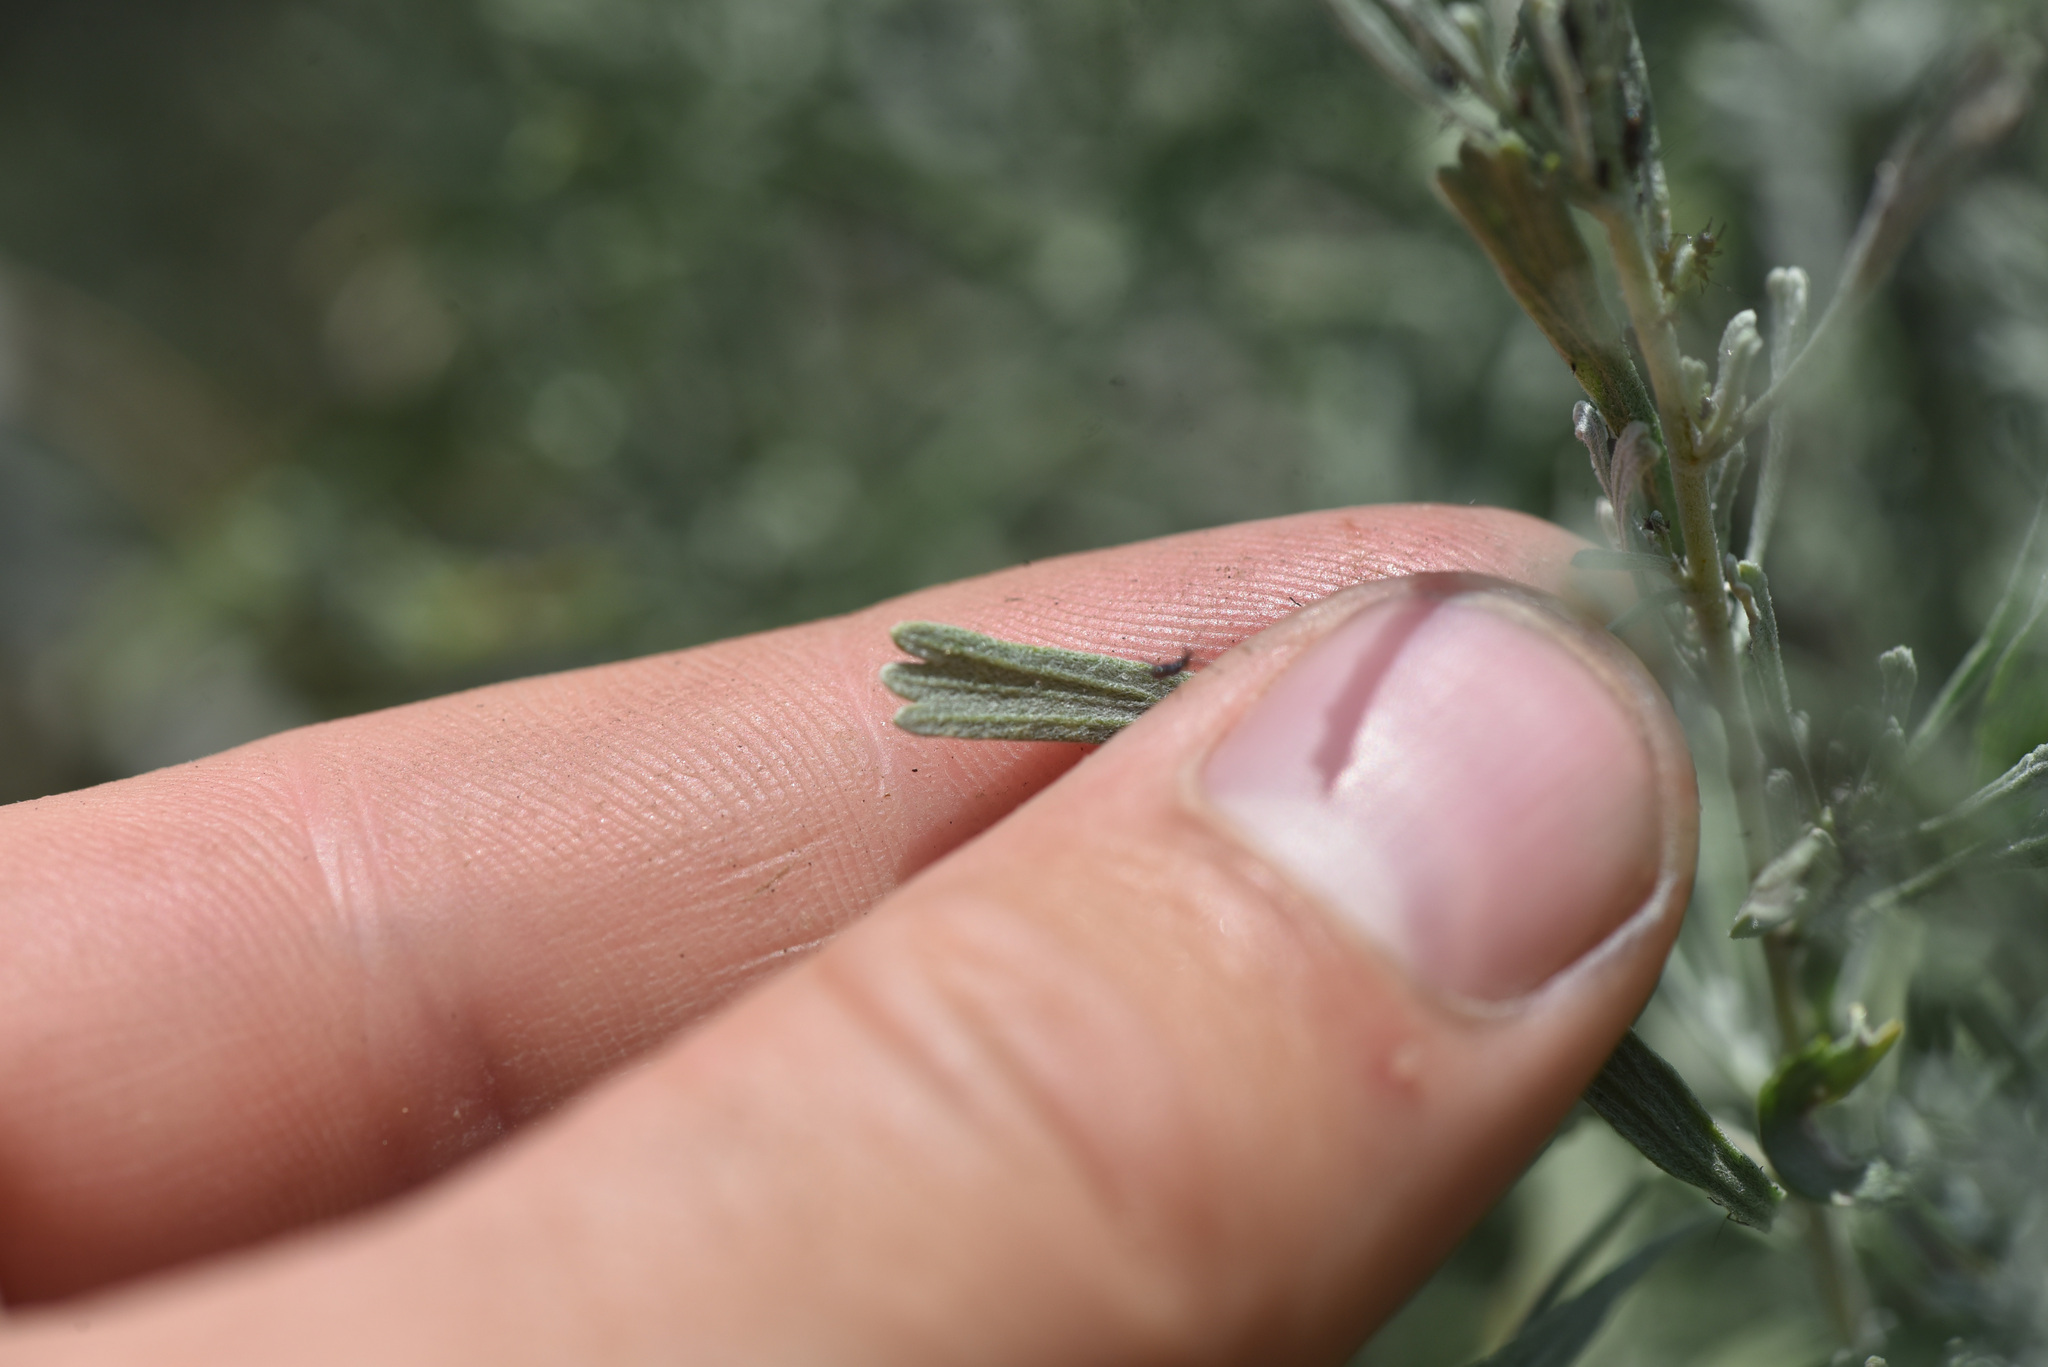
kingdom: Plantae
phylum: Tracheophyta
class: Magnoliopsida
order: Asterales
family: Asteraceae
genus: Artemisia
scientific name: Artemisia tridentata
